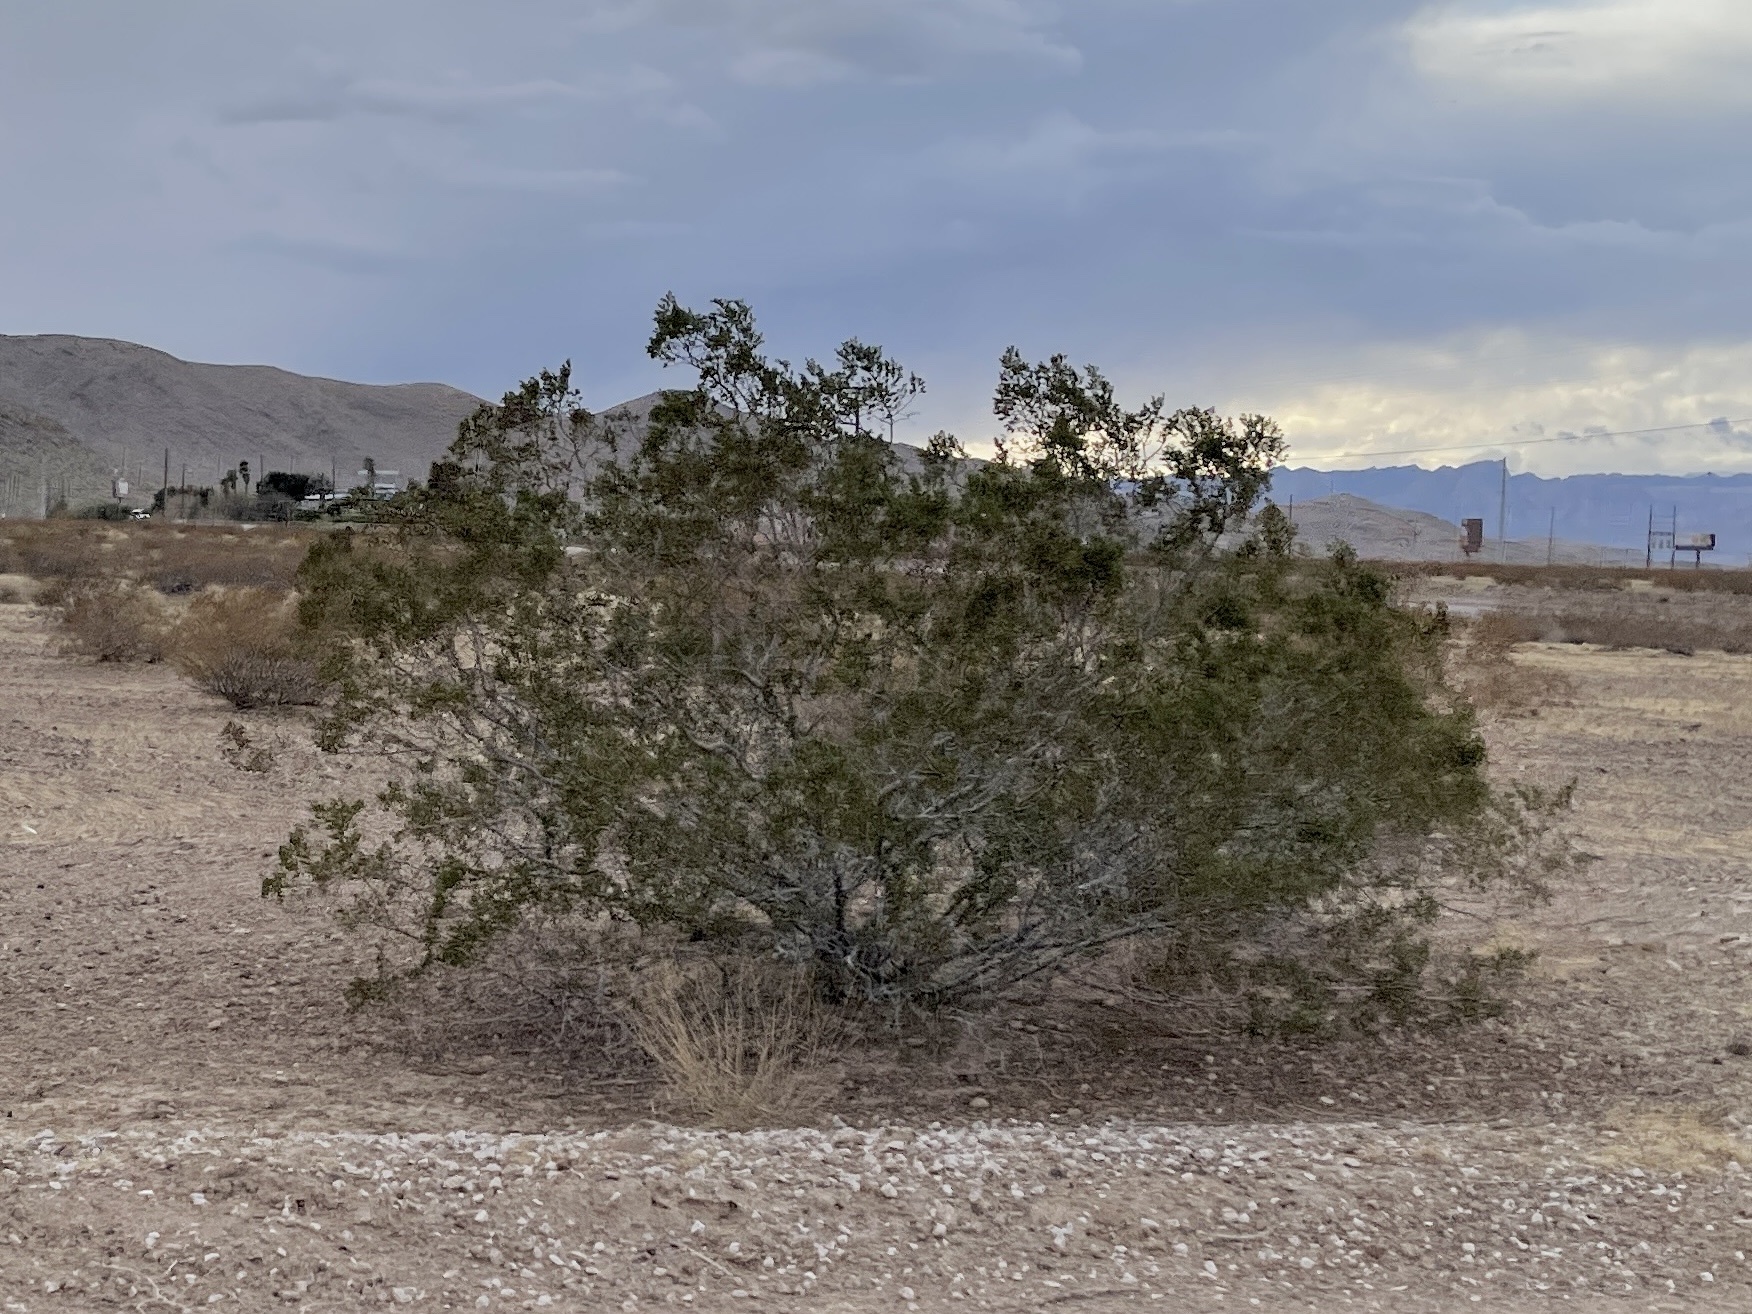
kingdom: Plantae
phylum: Tracheophyta
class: Magnoliopsida
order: Zygophyllales
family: Zygophyllaceae
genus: Larrea
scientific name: Larrea tridentata
